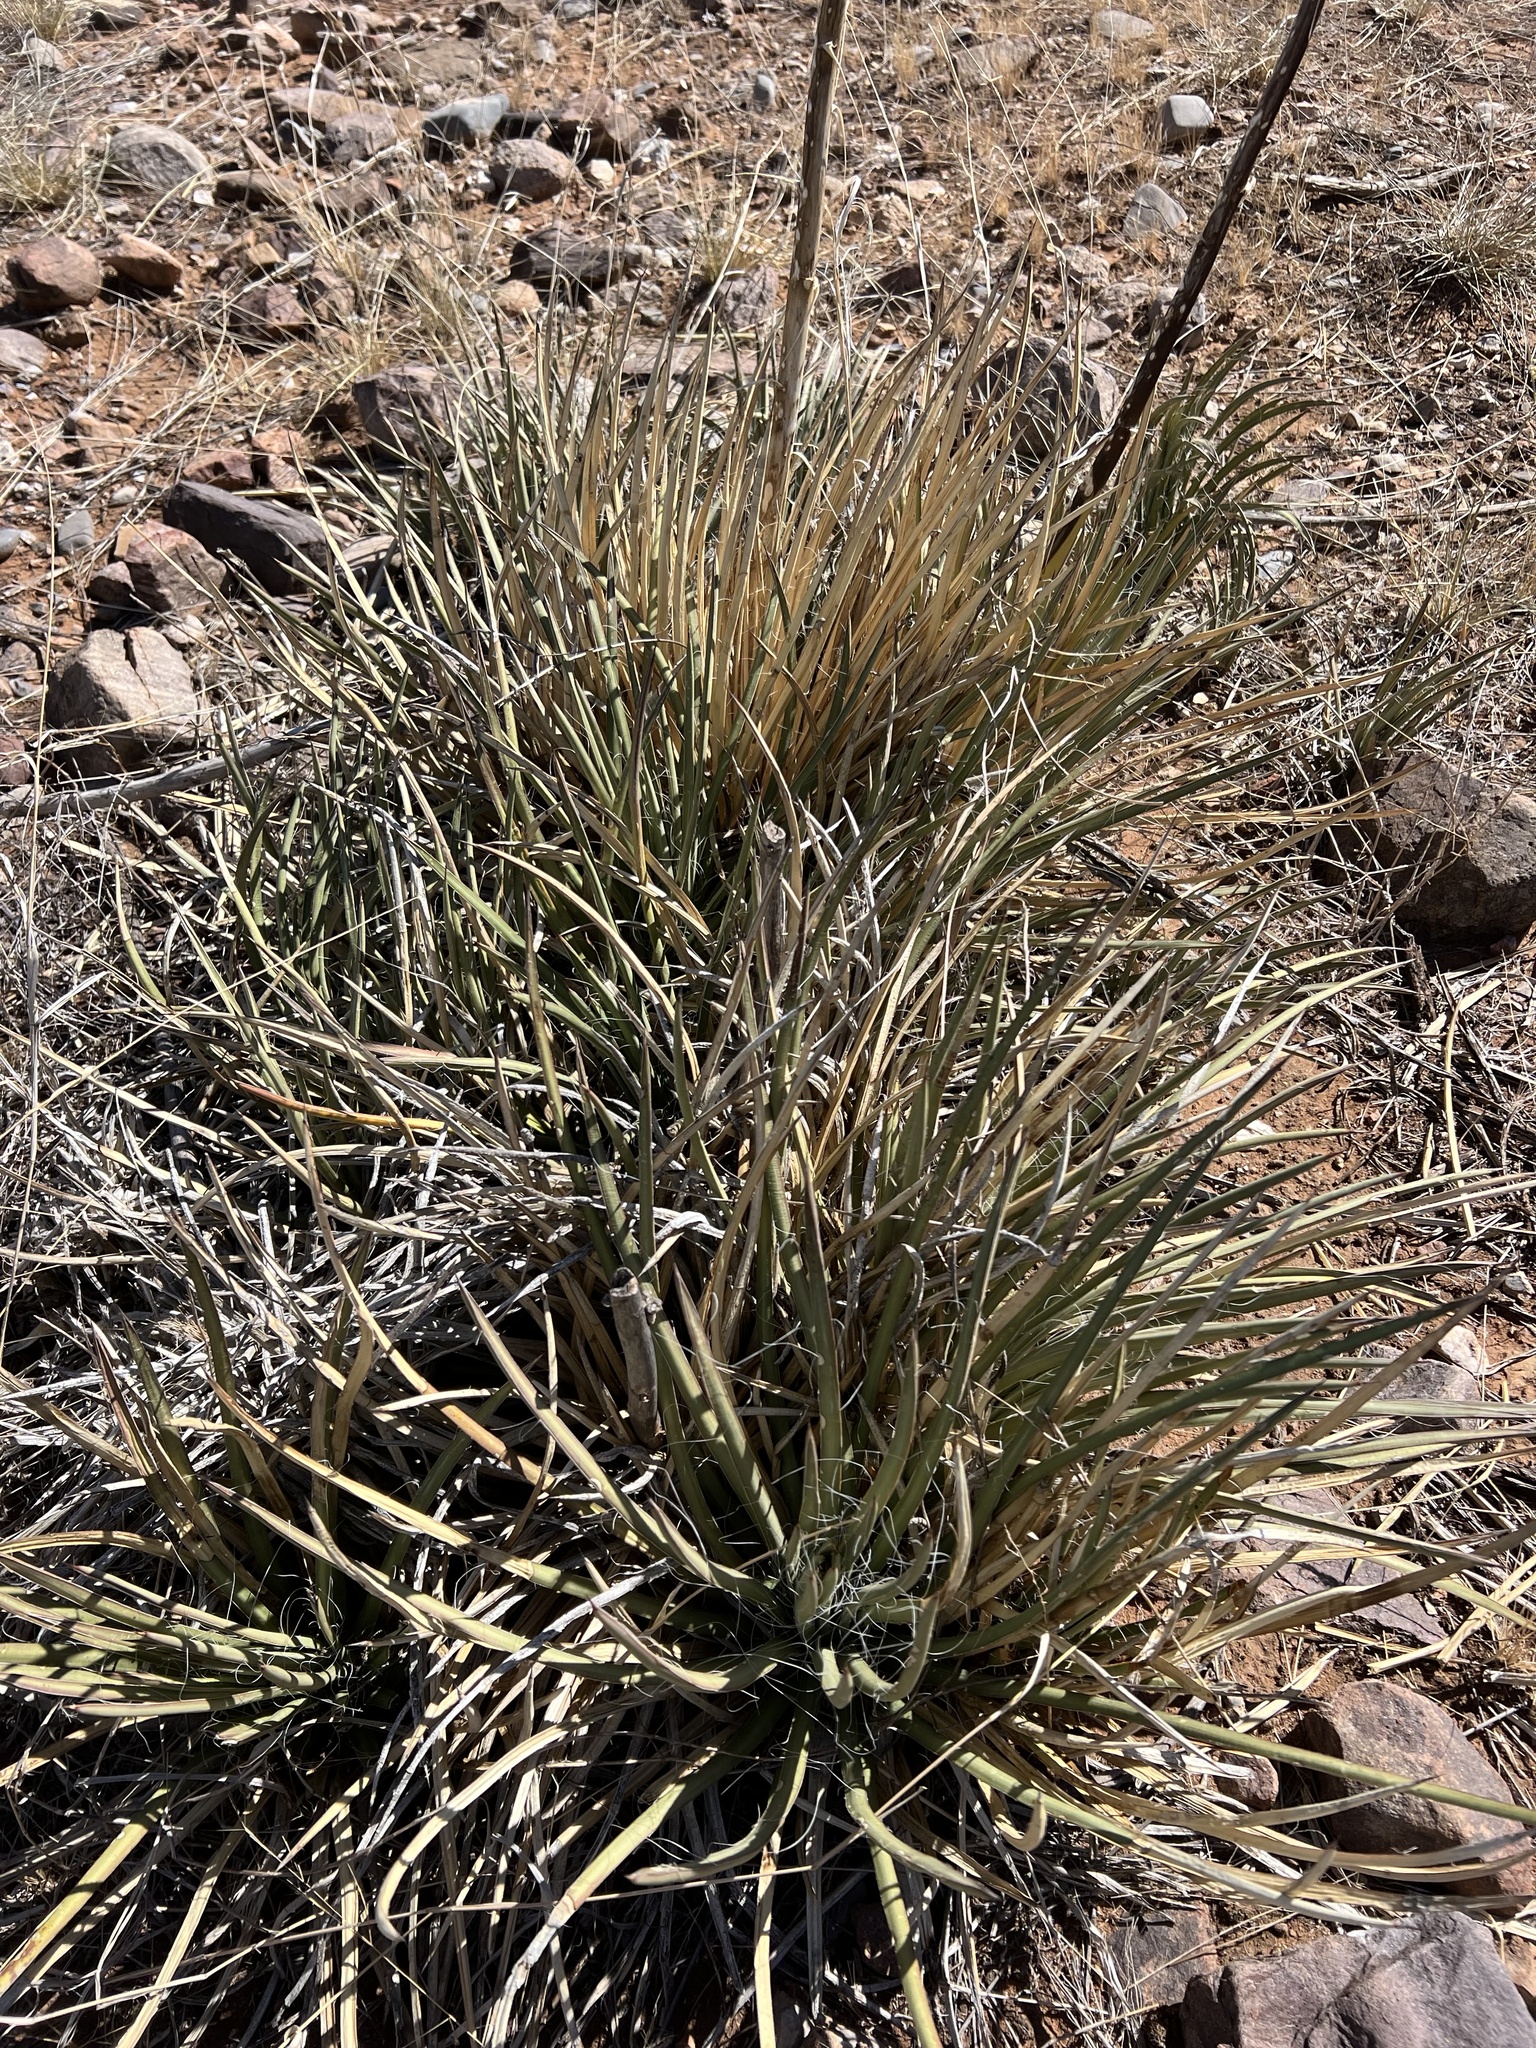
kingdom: Plantae
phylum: Tracheophyta
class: Liliopsida
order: Asparagales
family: Asparagaceae
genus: Agave
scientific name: Agave schottii
